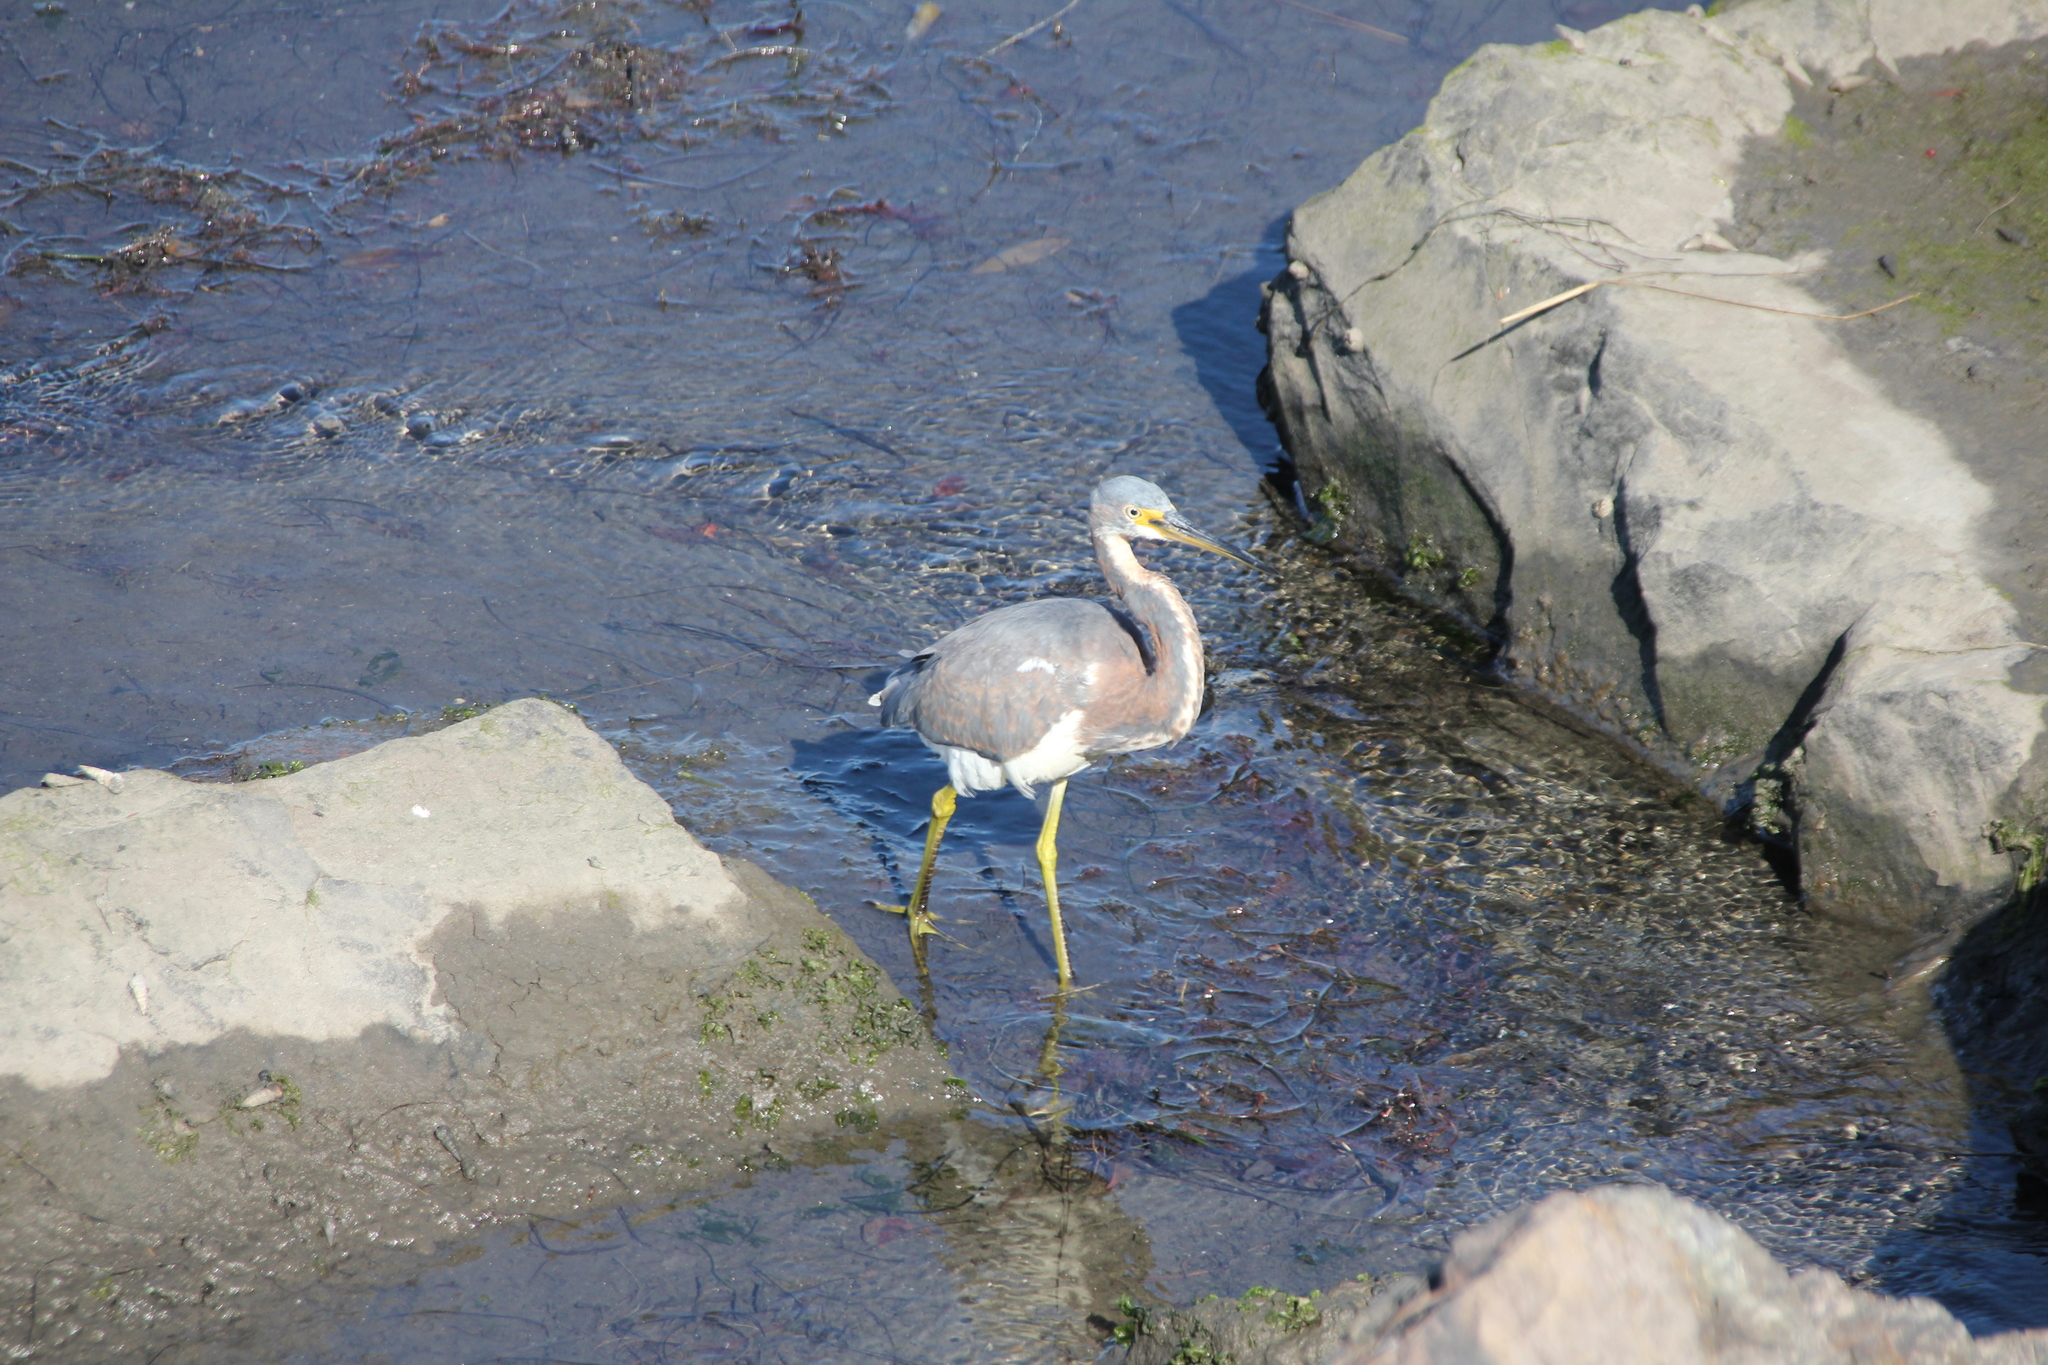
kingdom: Animalia
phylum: Chordata
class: Aves
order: Pelecaniformes
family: Ardeidae
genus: Egretta
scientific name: Egretta tricolor
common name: Tricolored heron
